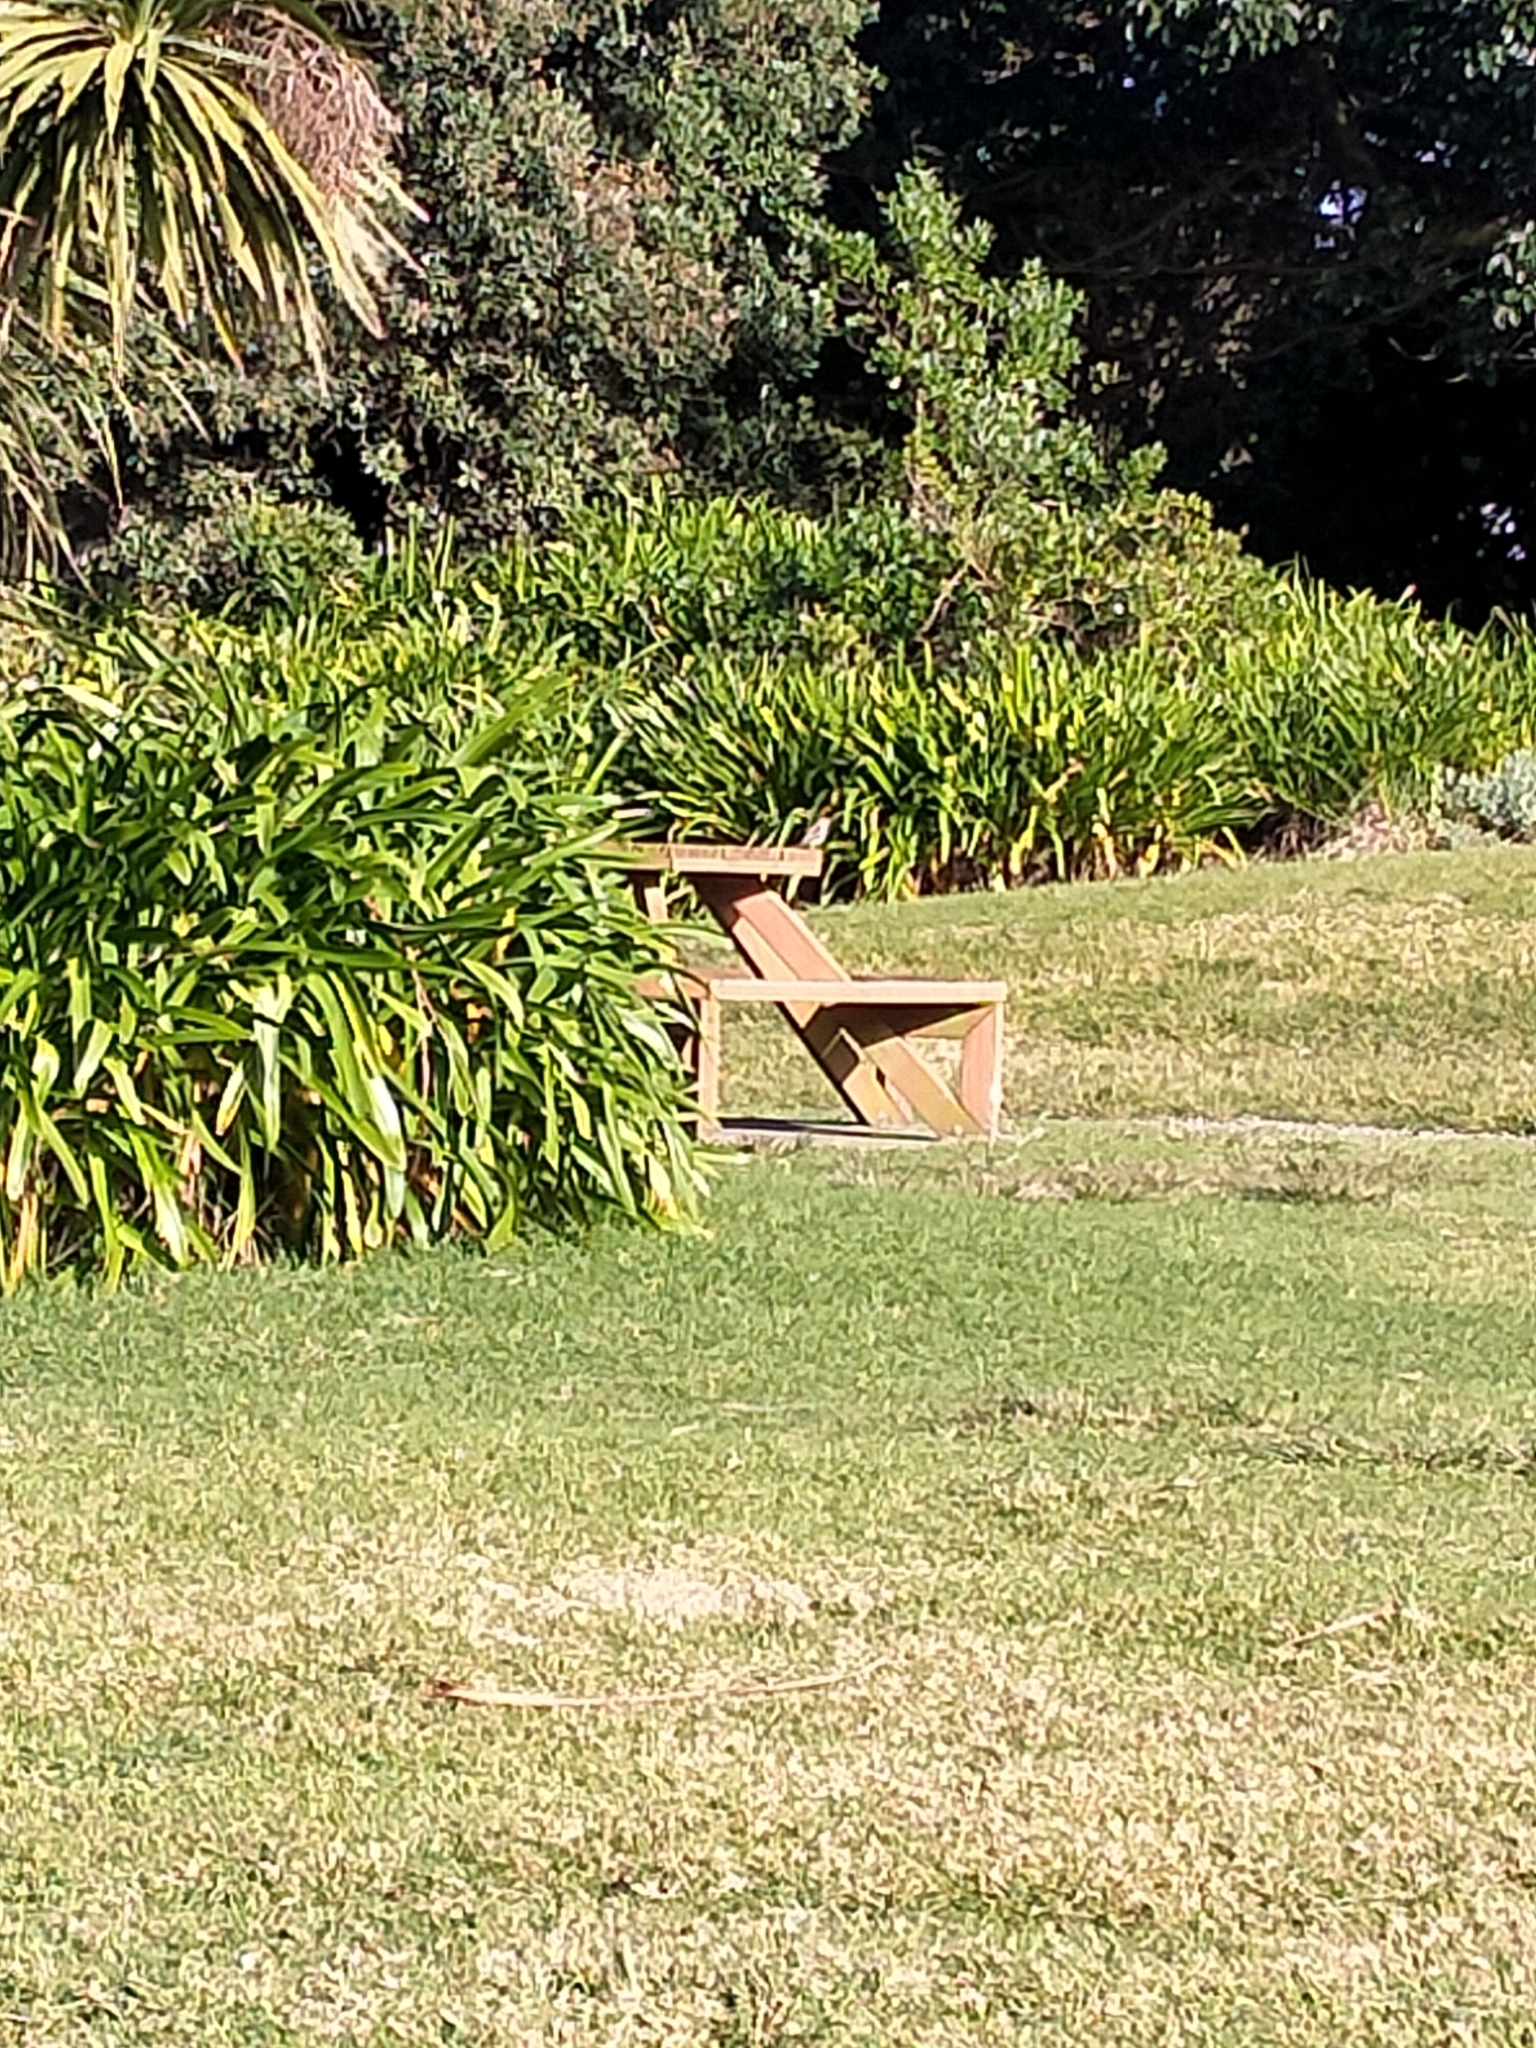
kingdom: Animalia
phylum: Chordata
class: Aves
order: Passeriformes
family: Fringillidae
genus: Fringilla
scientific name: Fringilla coelebs
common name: Common chaffinch
